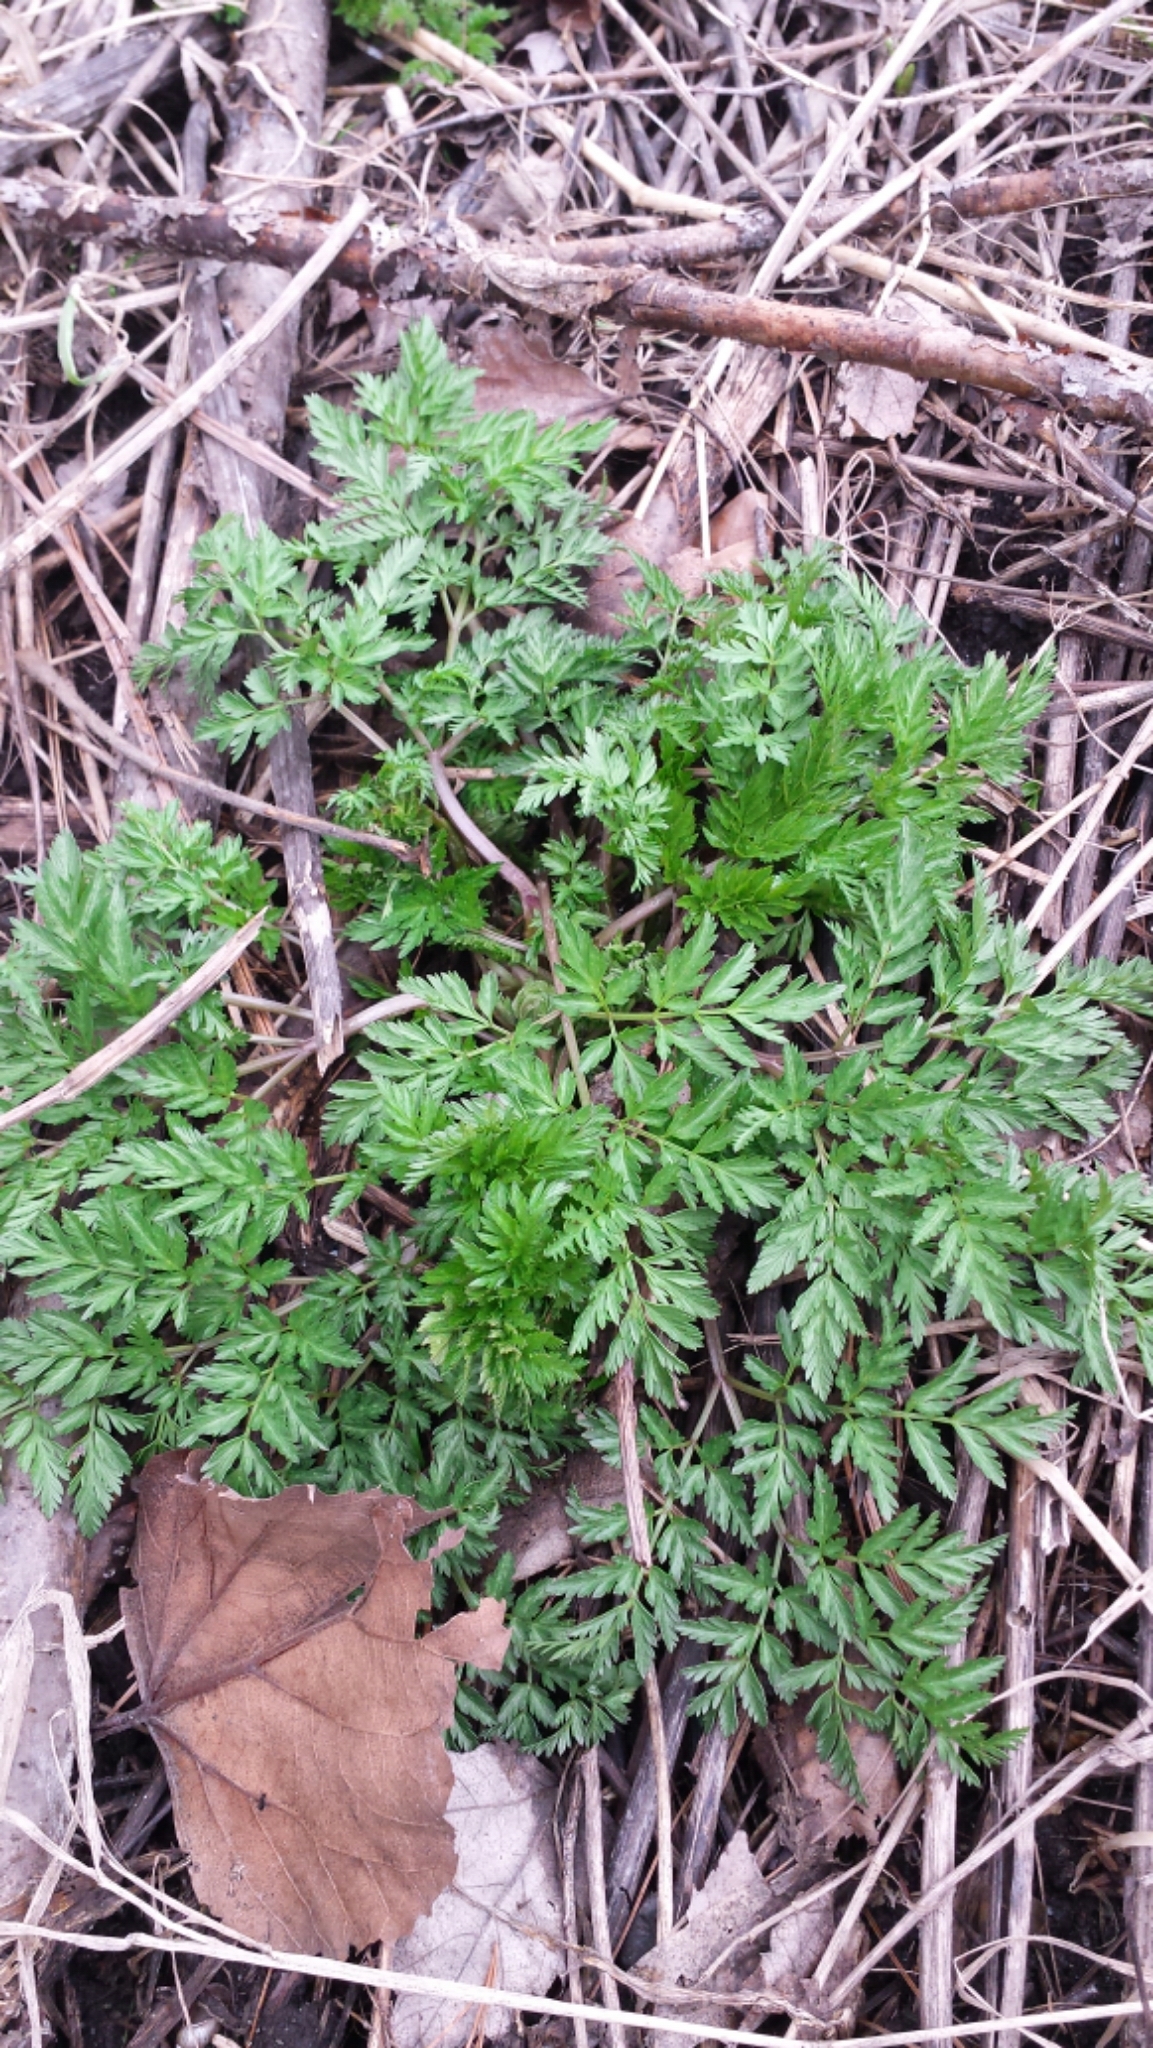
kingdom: Plantae
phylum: Tracheophyta
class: Magnoliopsida
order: Apiales
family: Apiaceae
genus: Anthriscus
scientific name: Anthriscus sylvestris
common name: Cow parsley
